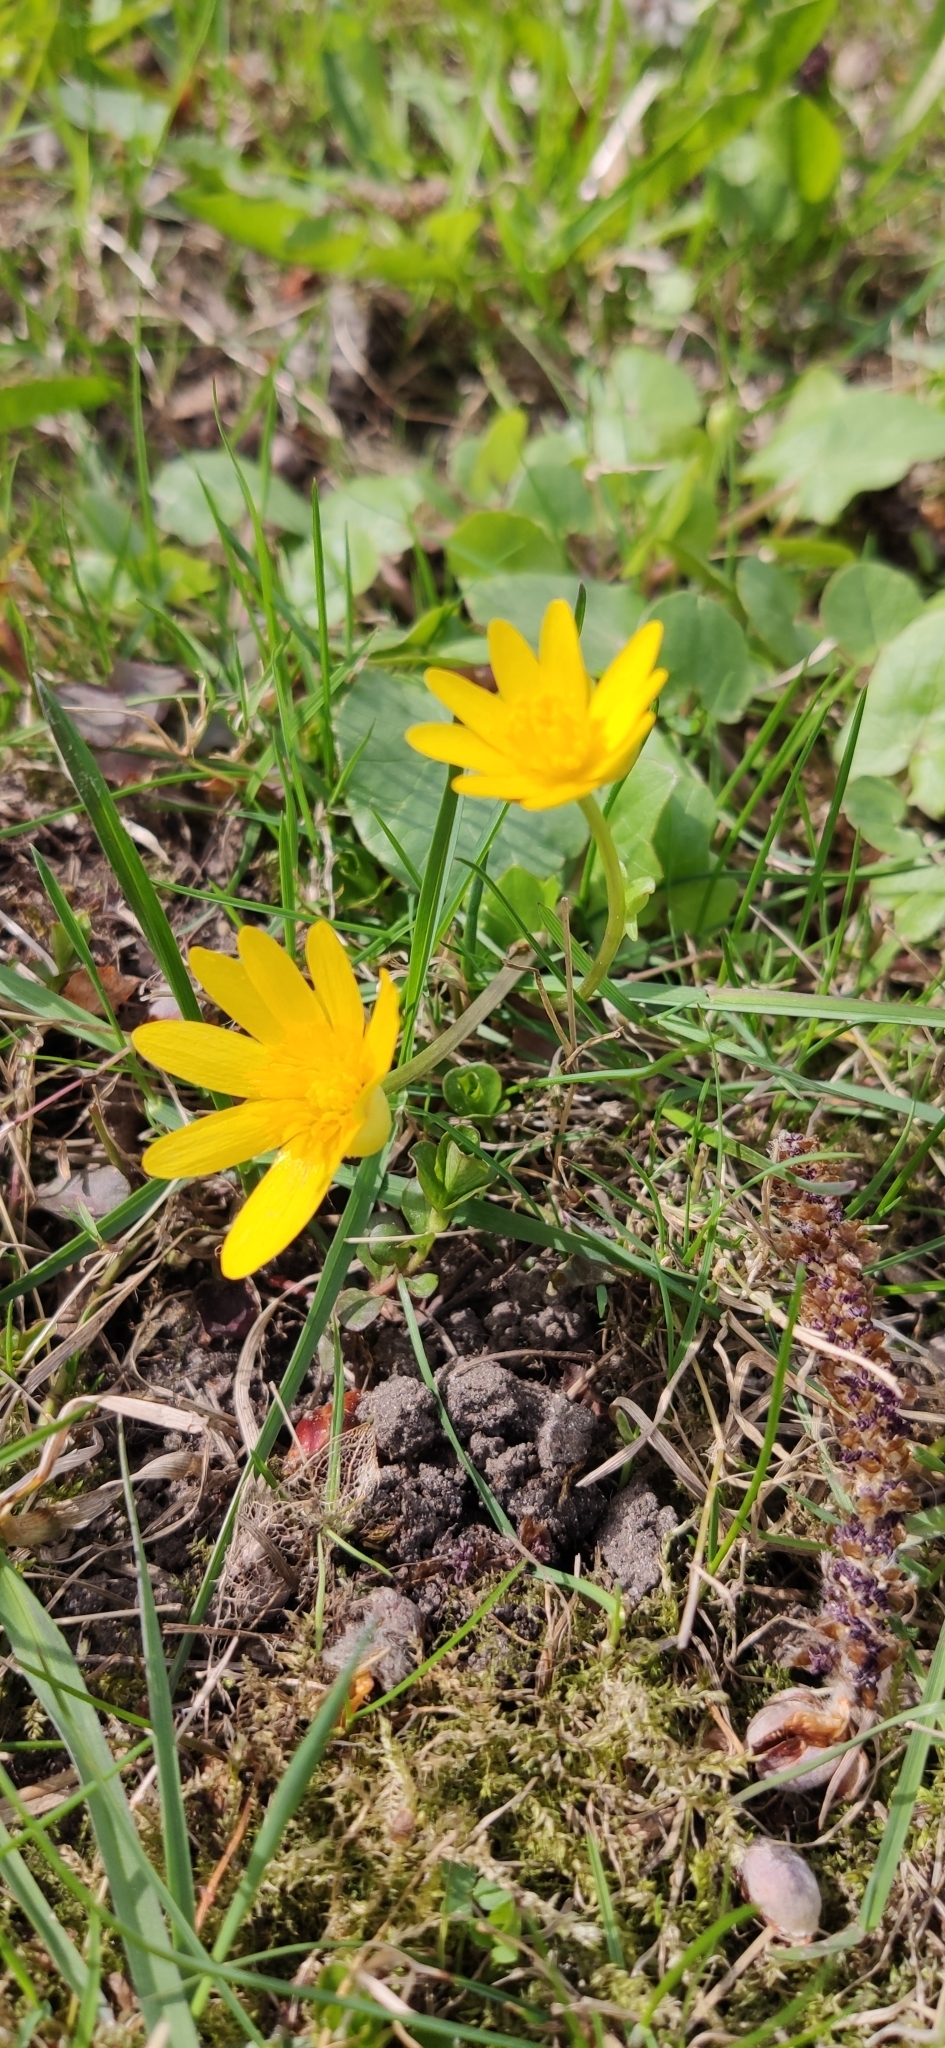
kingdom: Plantae
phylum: Tracheophyta
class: Magnoliopsida
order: Ranunculales
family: Ranunculaceae
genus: Ficaria
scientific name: Ficaria verna
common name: Lesser celandine
